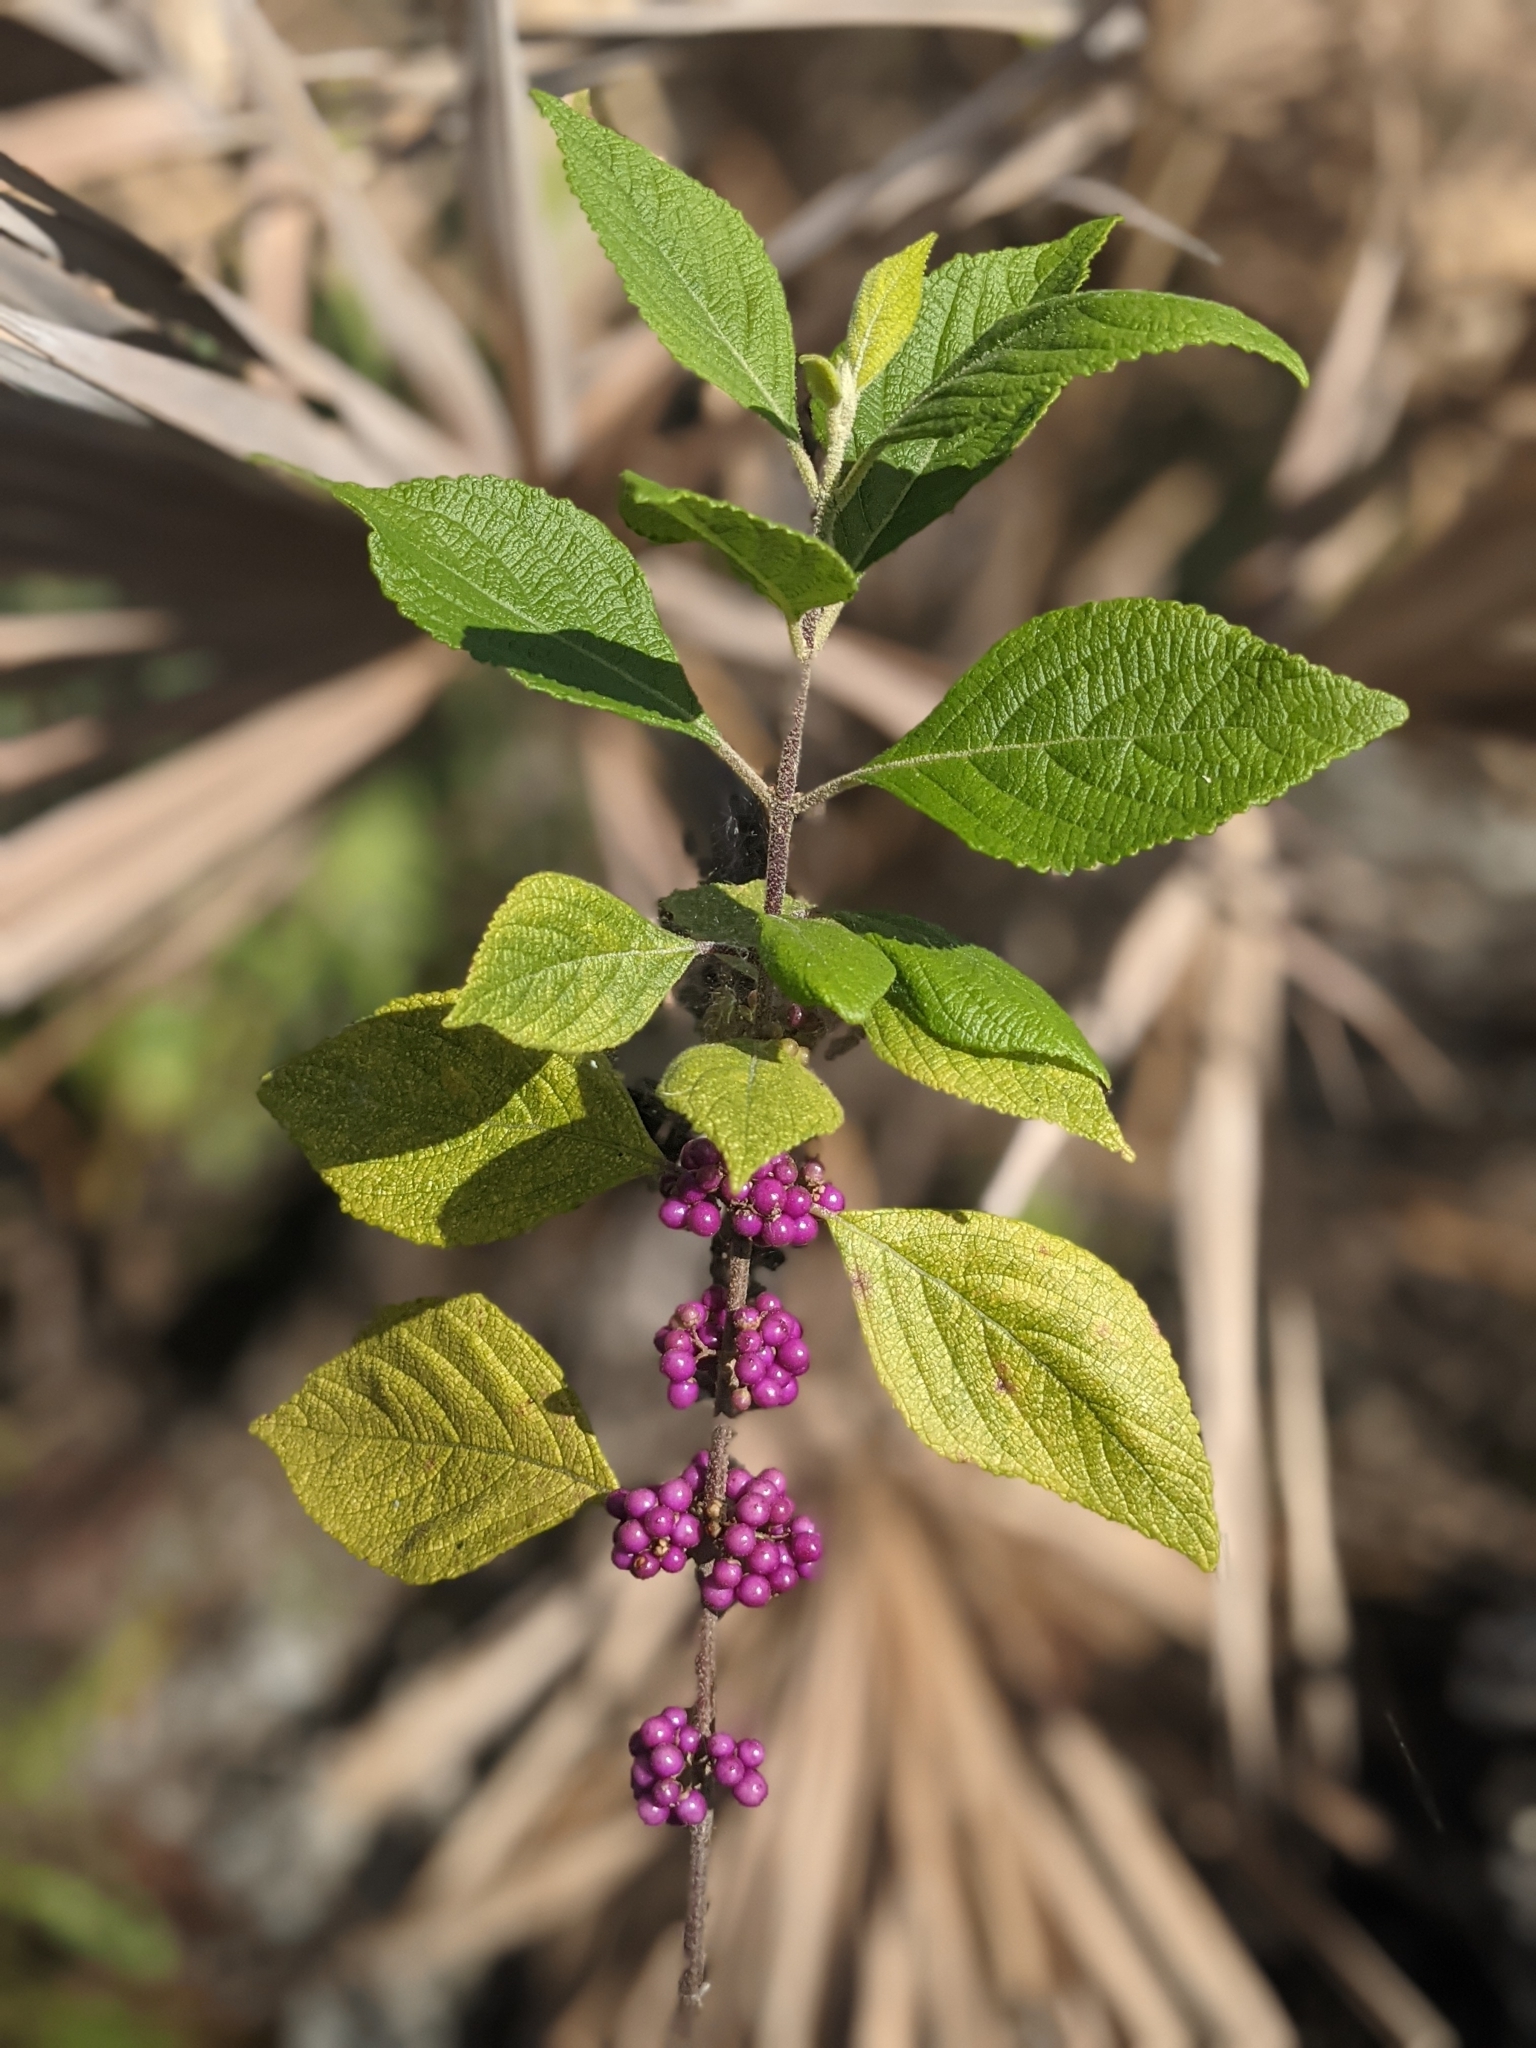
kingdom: Plantae
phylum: Tracheophyta
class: Magnoliopsida
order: Lamiales
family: Lamiaceae
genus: Callicarpa
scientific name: Callicarpa americana
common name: American beautyberry
